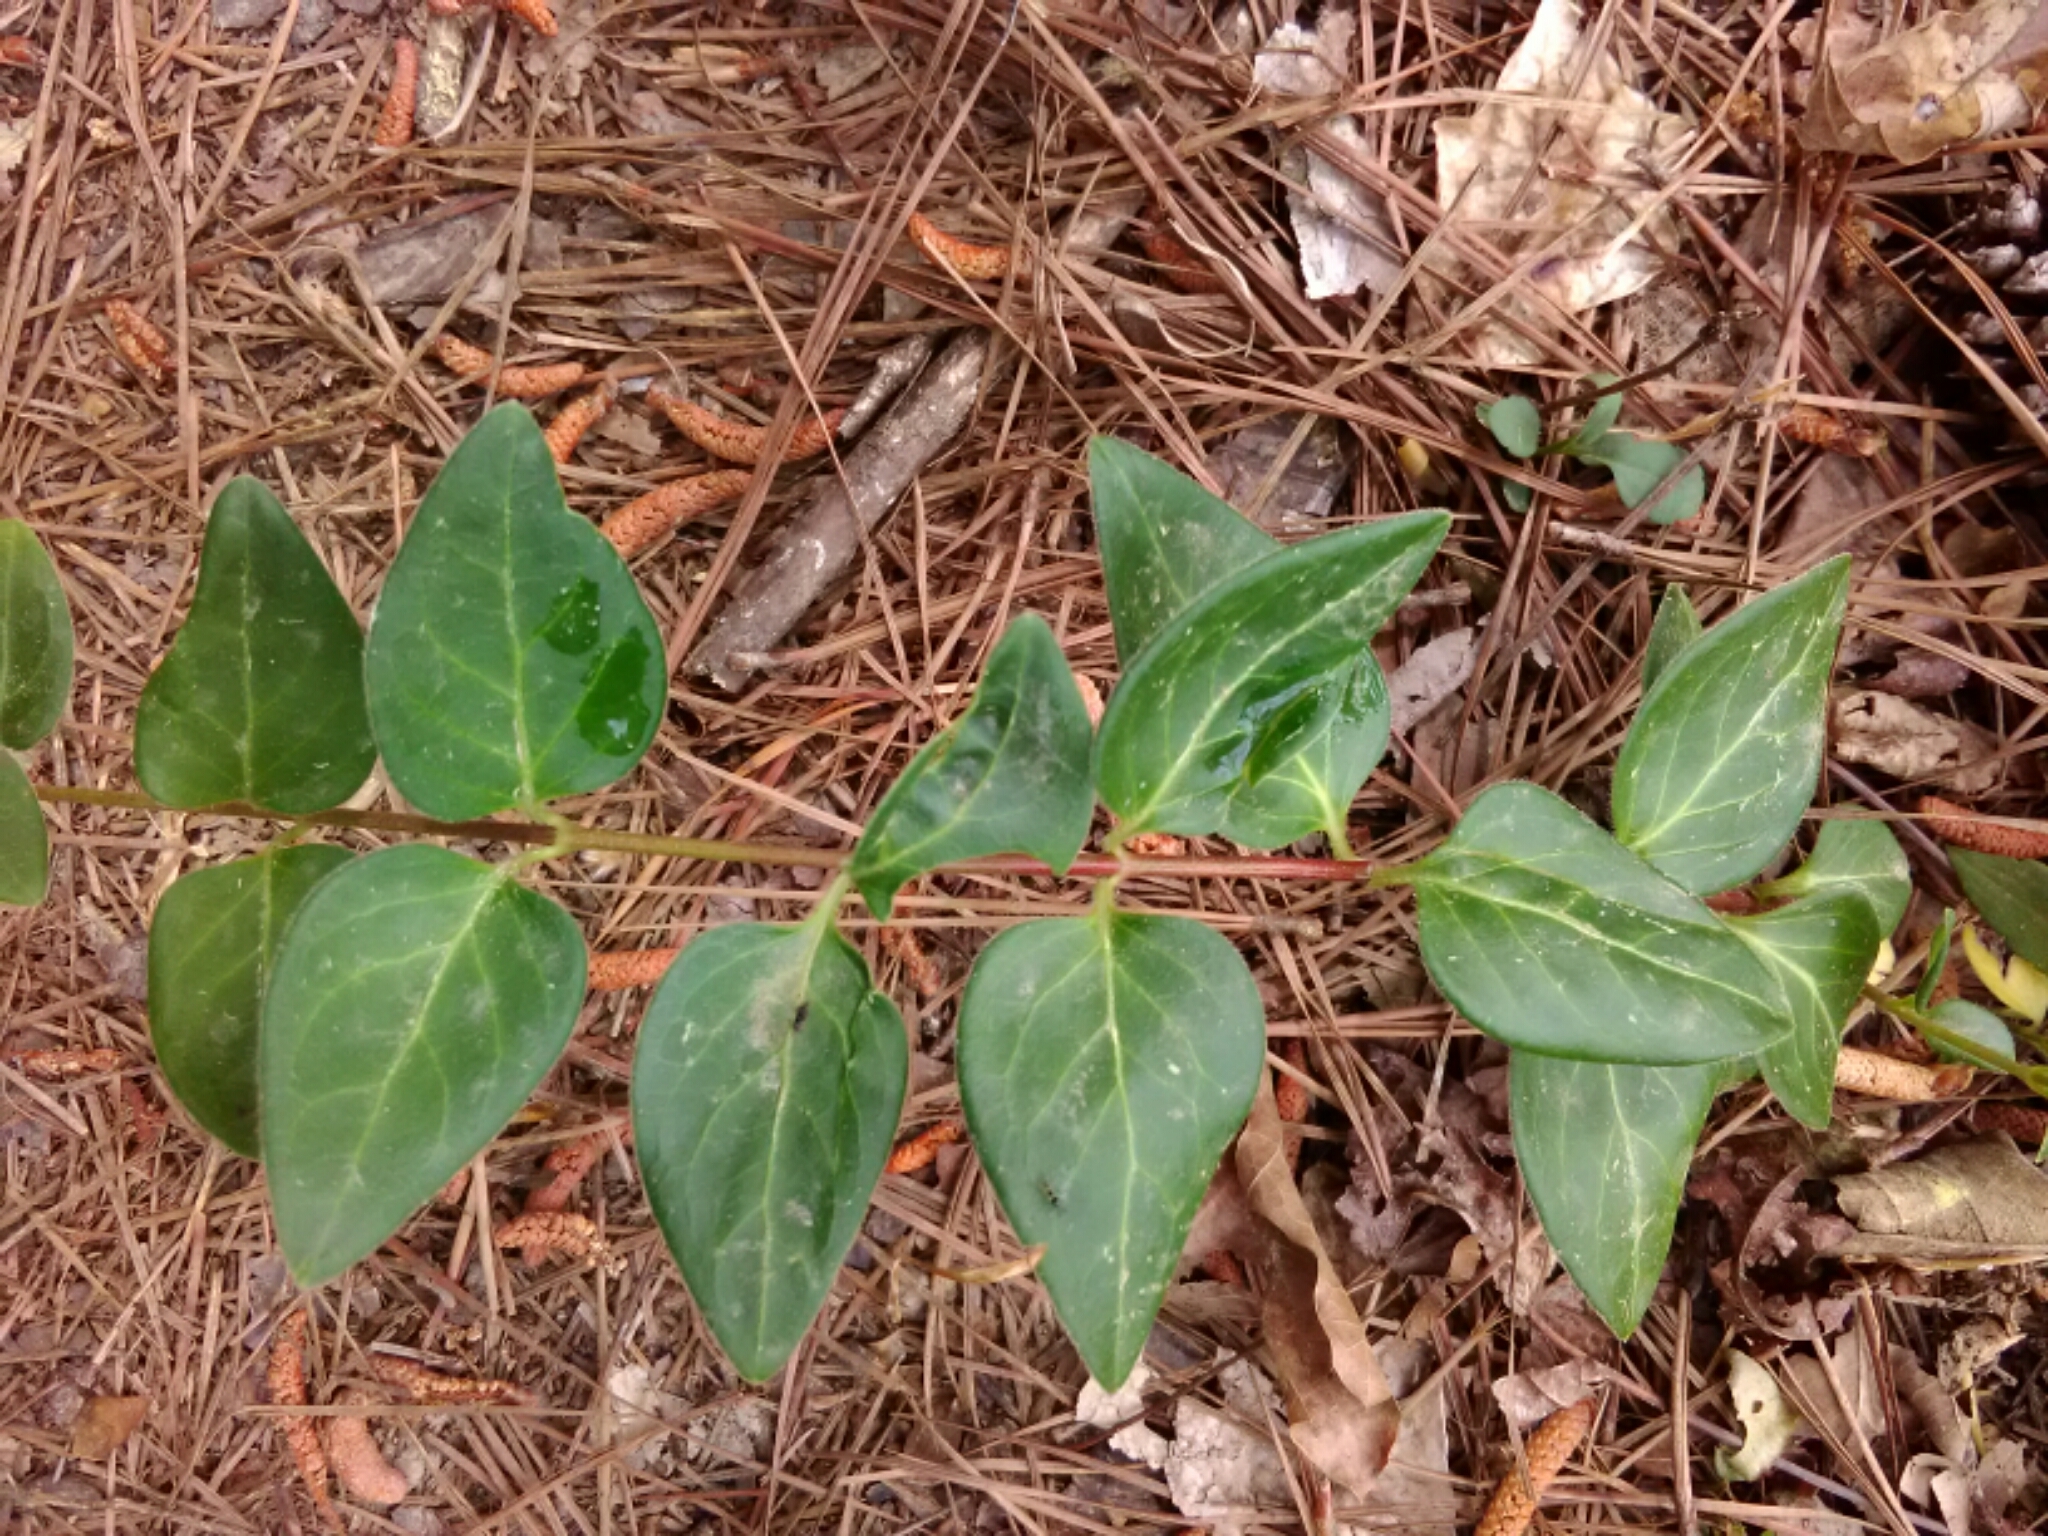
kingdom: Plantae
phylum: Tracheophyta
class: Magnoliopsida
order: Gentianales
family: Apocynaceae
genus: Vinca
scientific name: Vinca major
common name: Greater periwinkle
